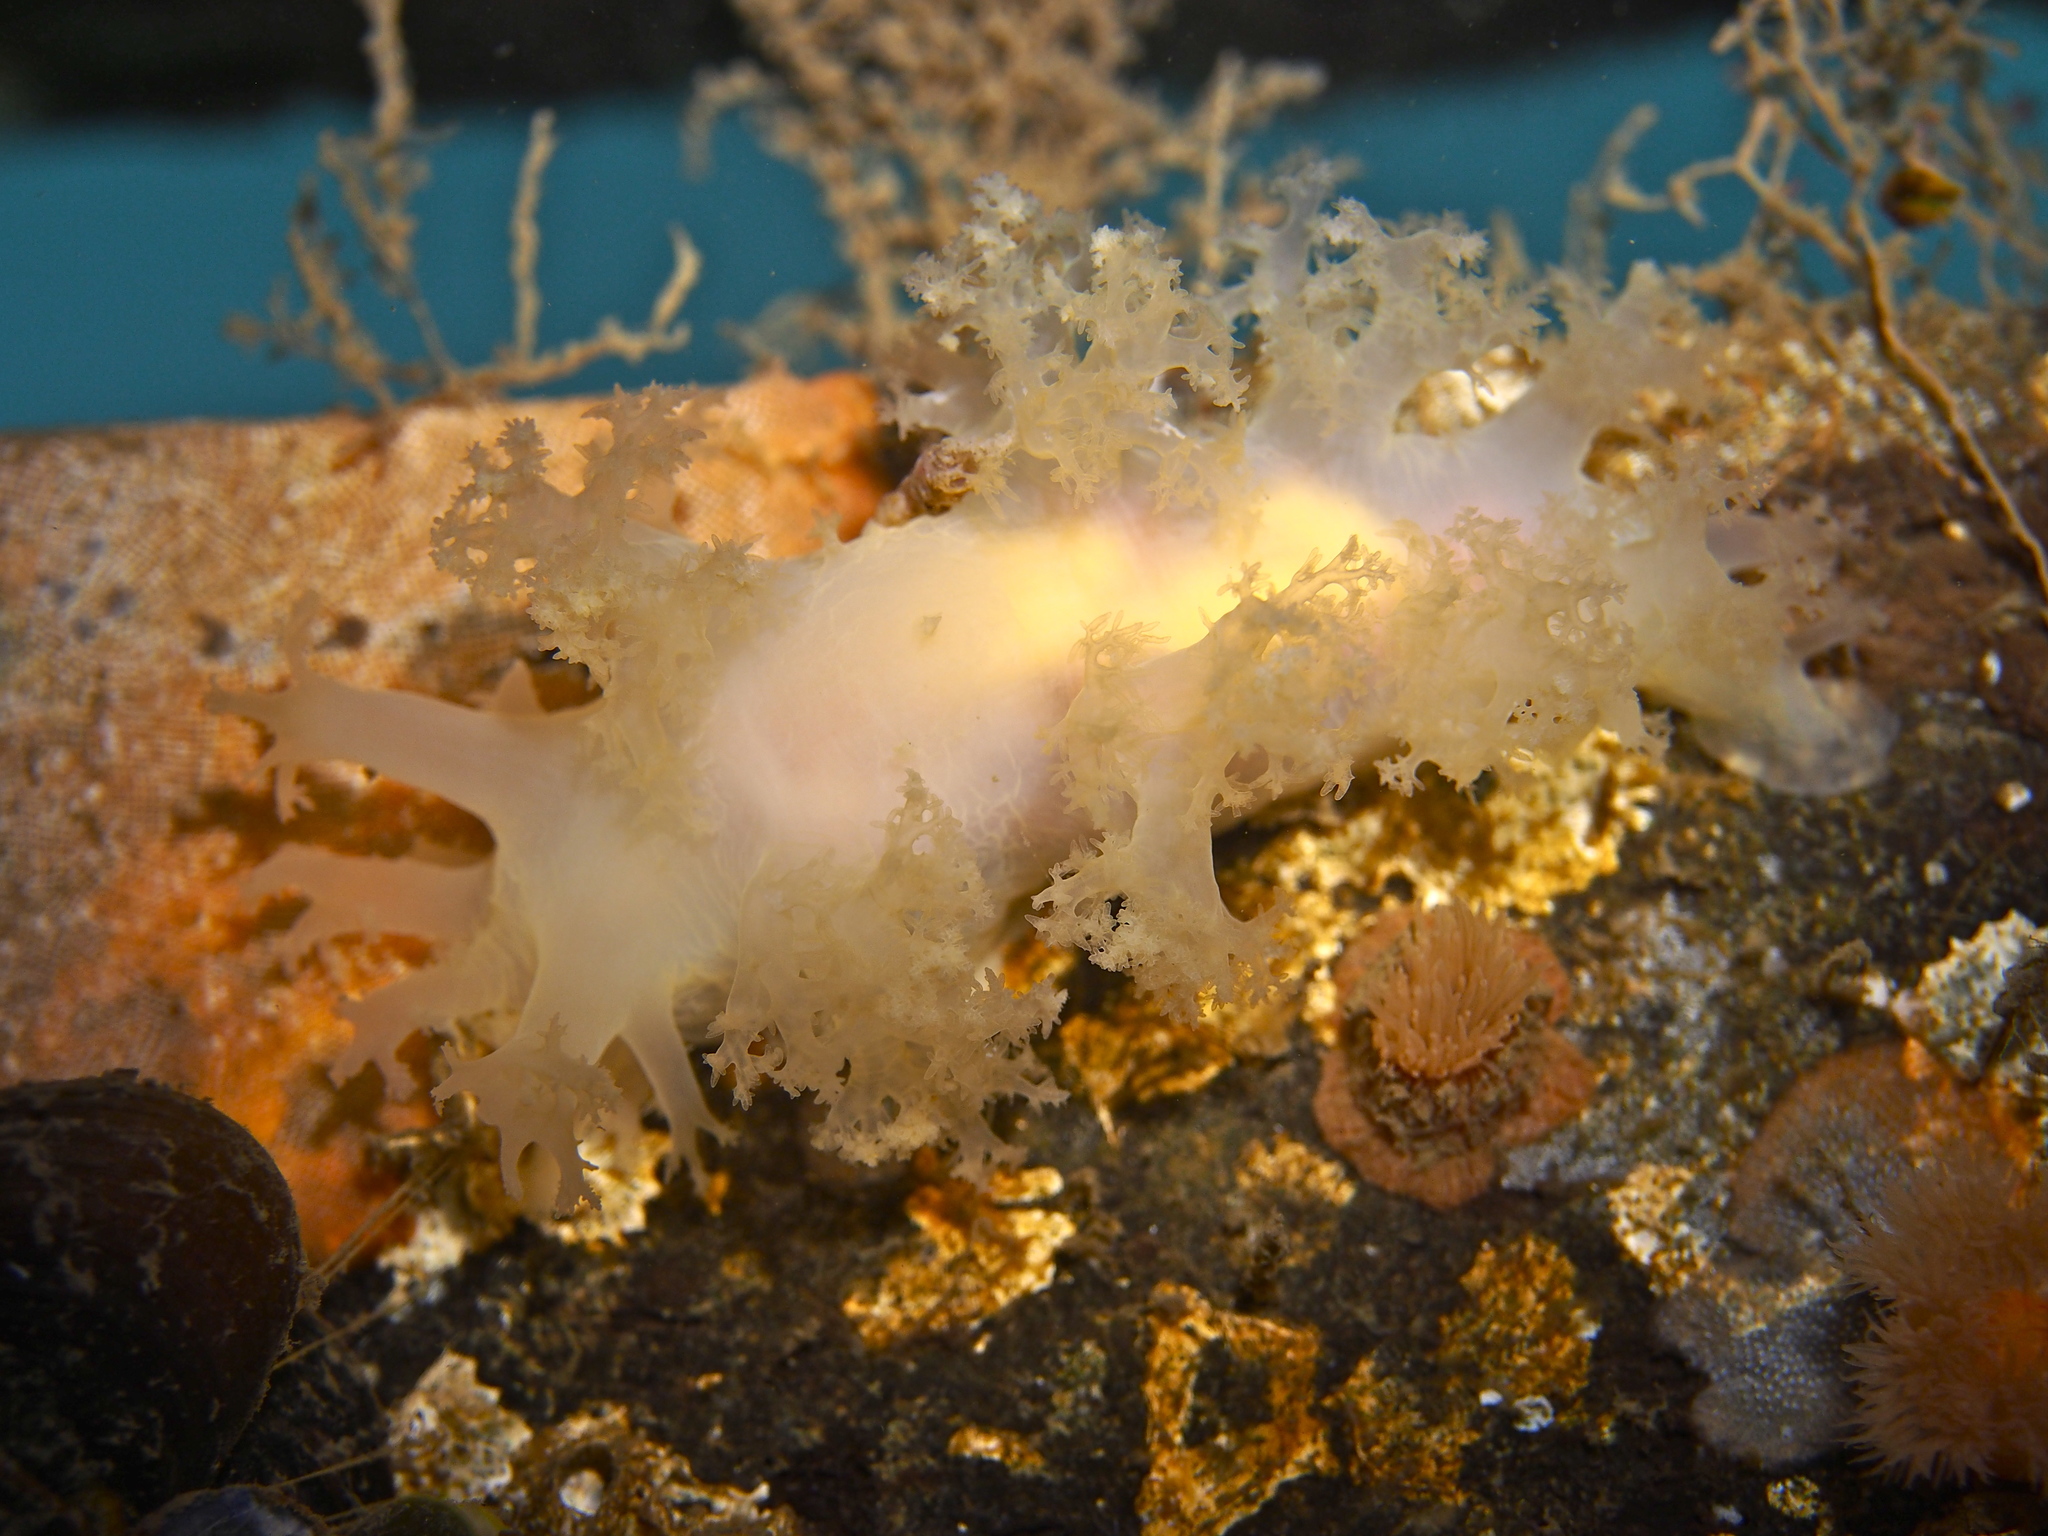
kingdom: Animalia
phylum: Mollusca
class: Gastropoda
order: Nudibranchia
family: Dendronotidae
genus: Dendronotus
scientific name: Dendronotus lacteus
